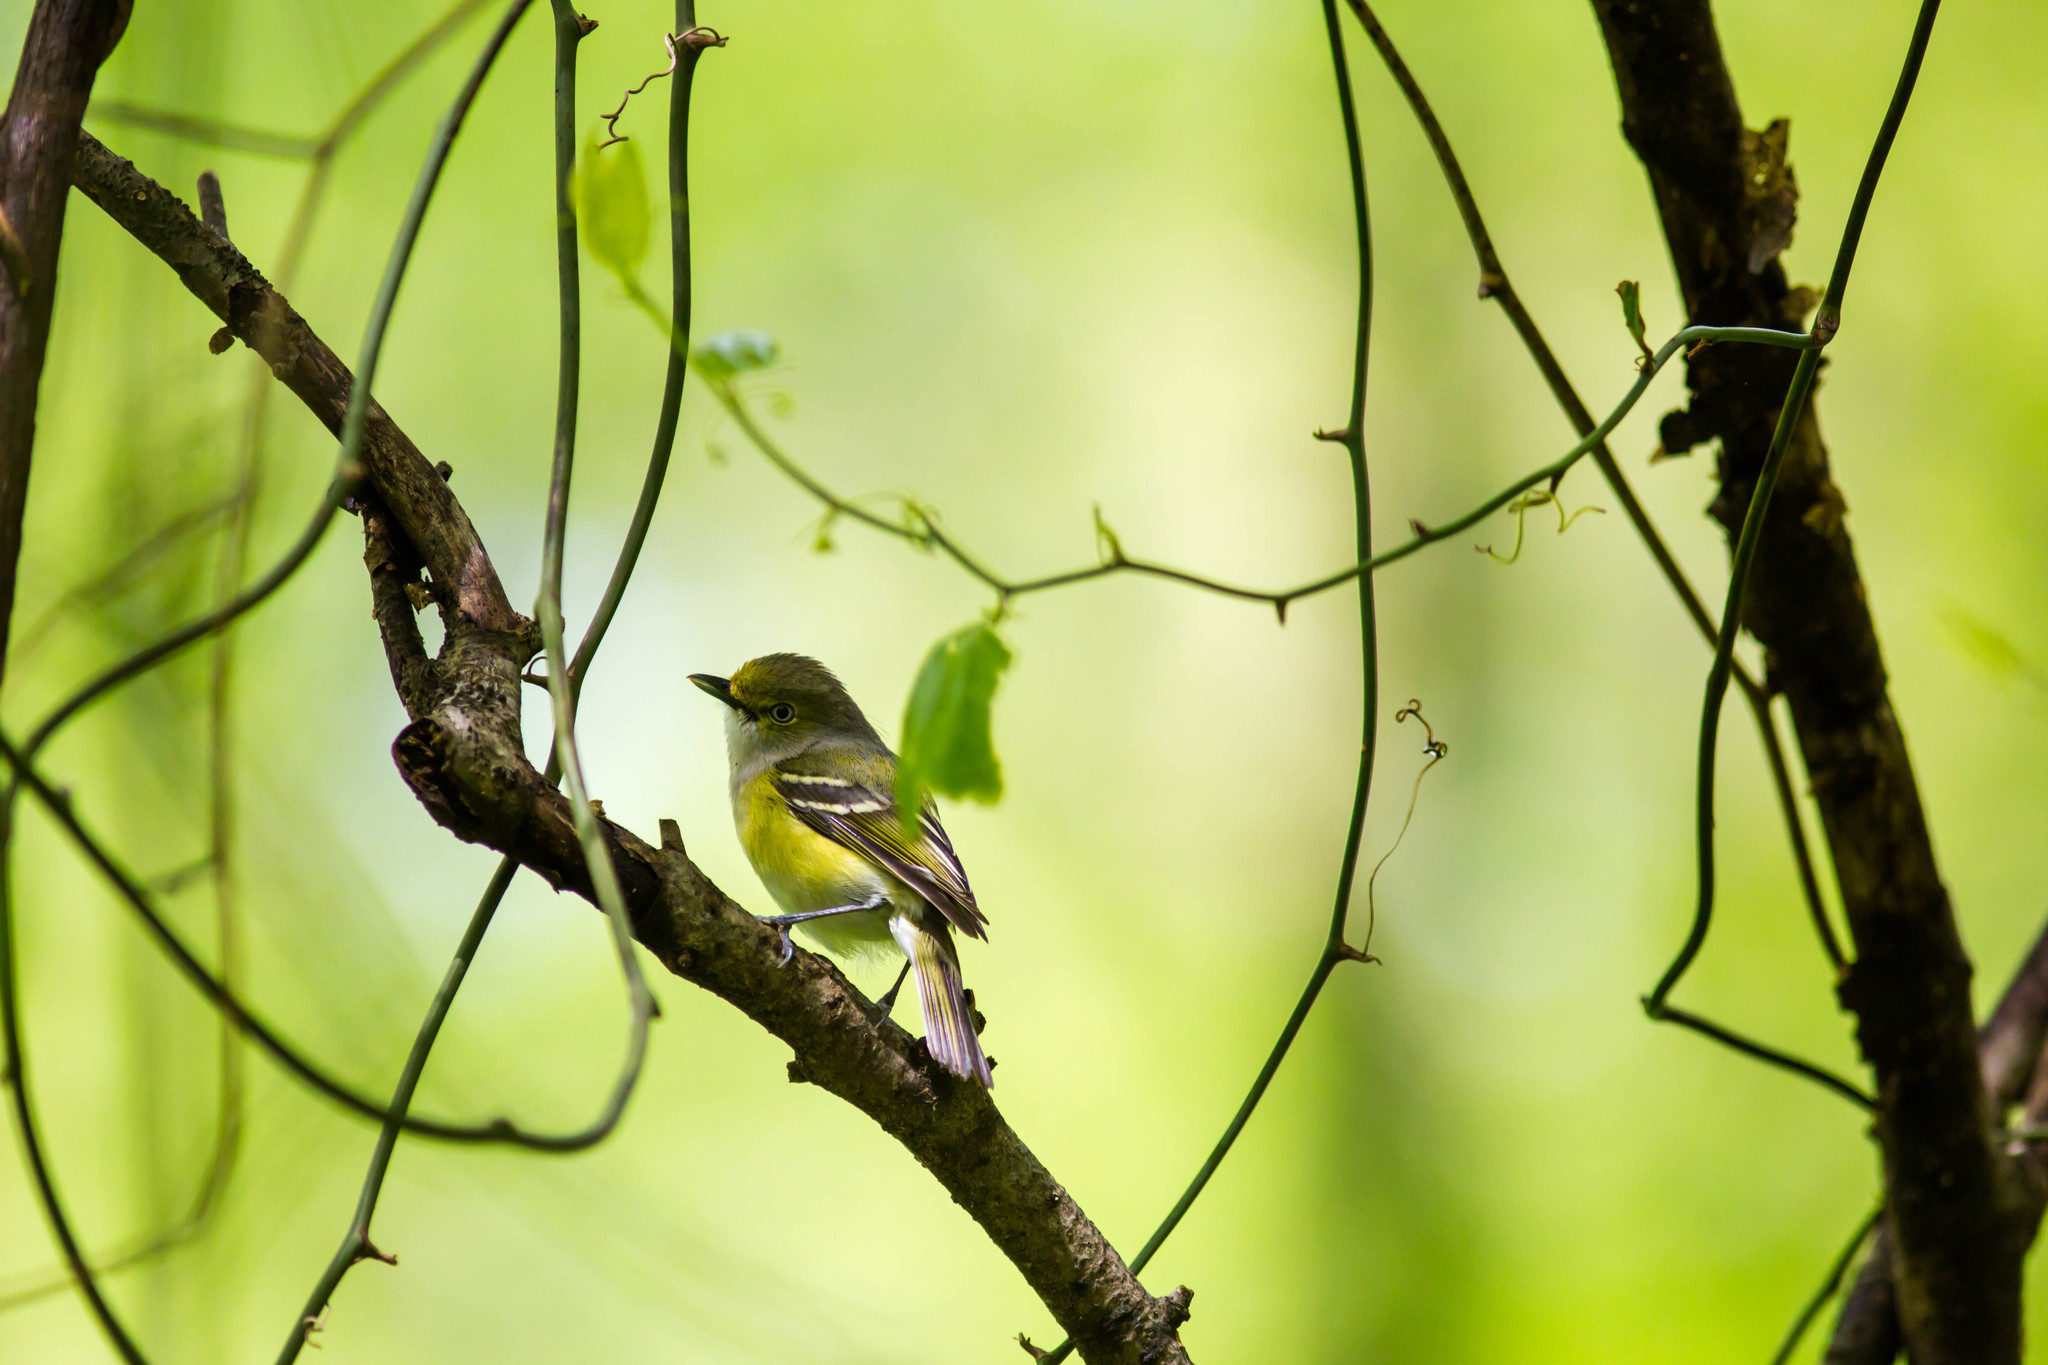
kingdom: Animalia
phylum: Chordata
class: Aves
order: Passeriformes
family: Vireonidae
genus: Vireo
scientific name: Vireo griseus
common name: White-eyed vireo
